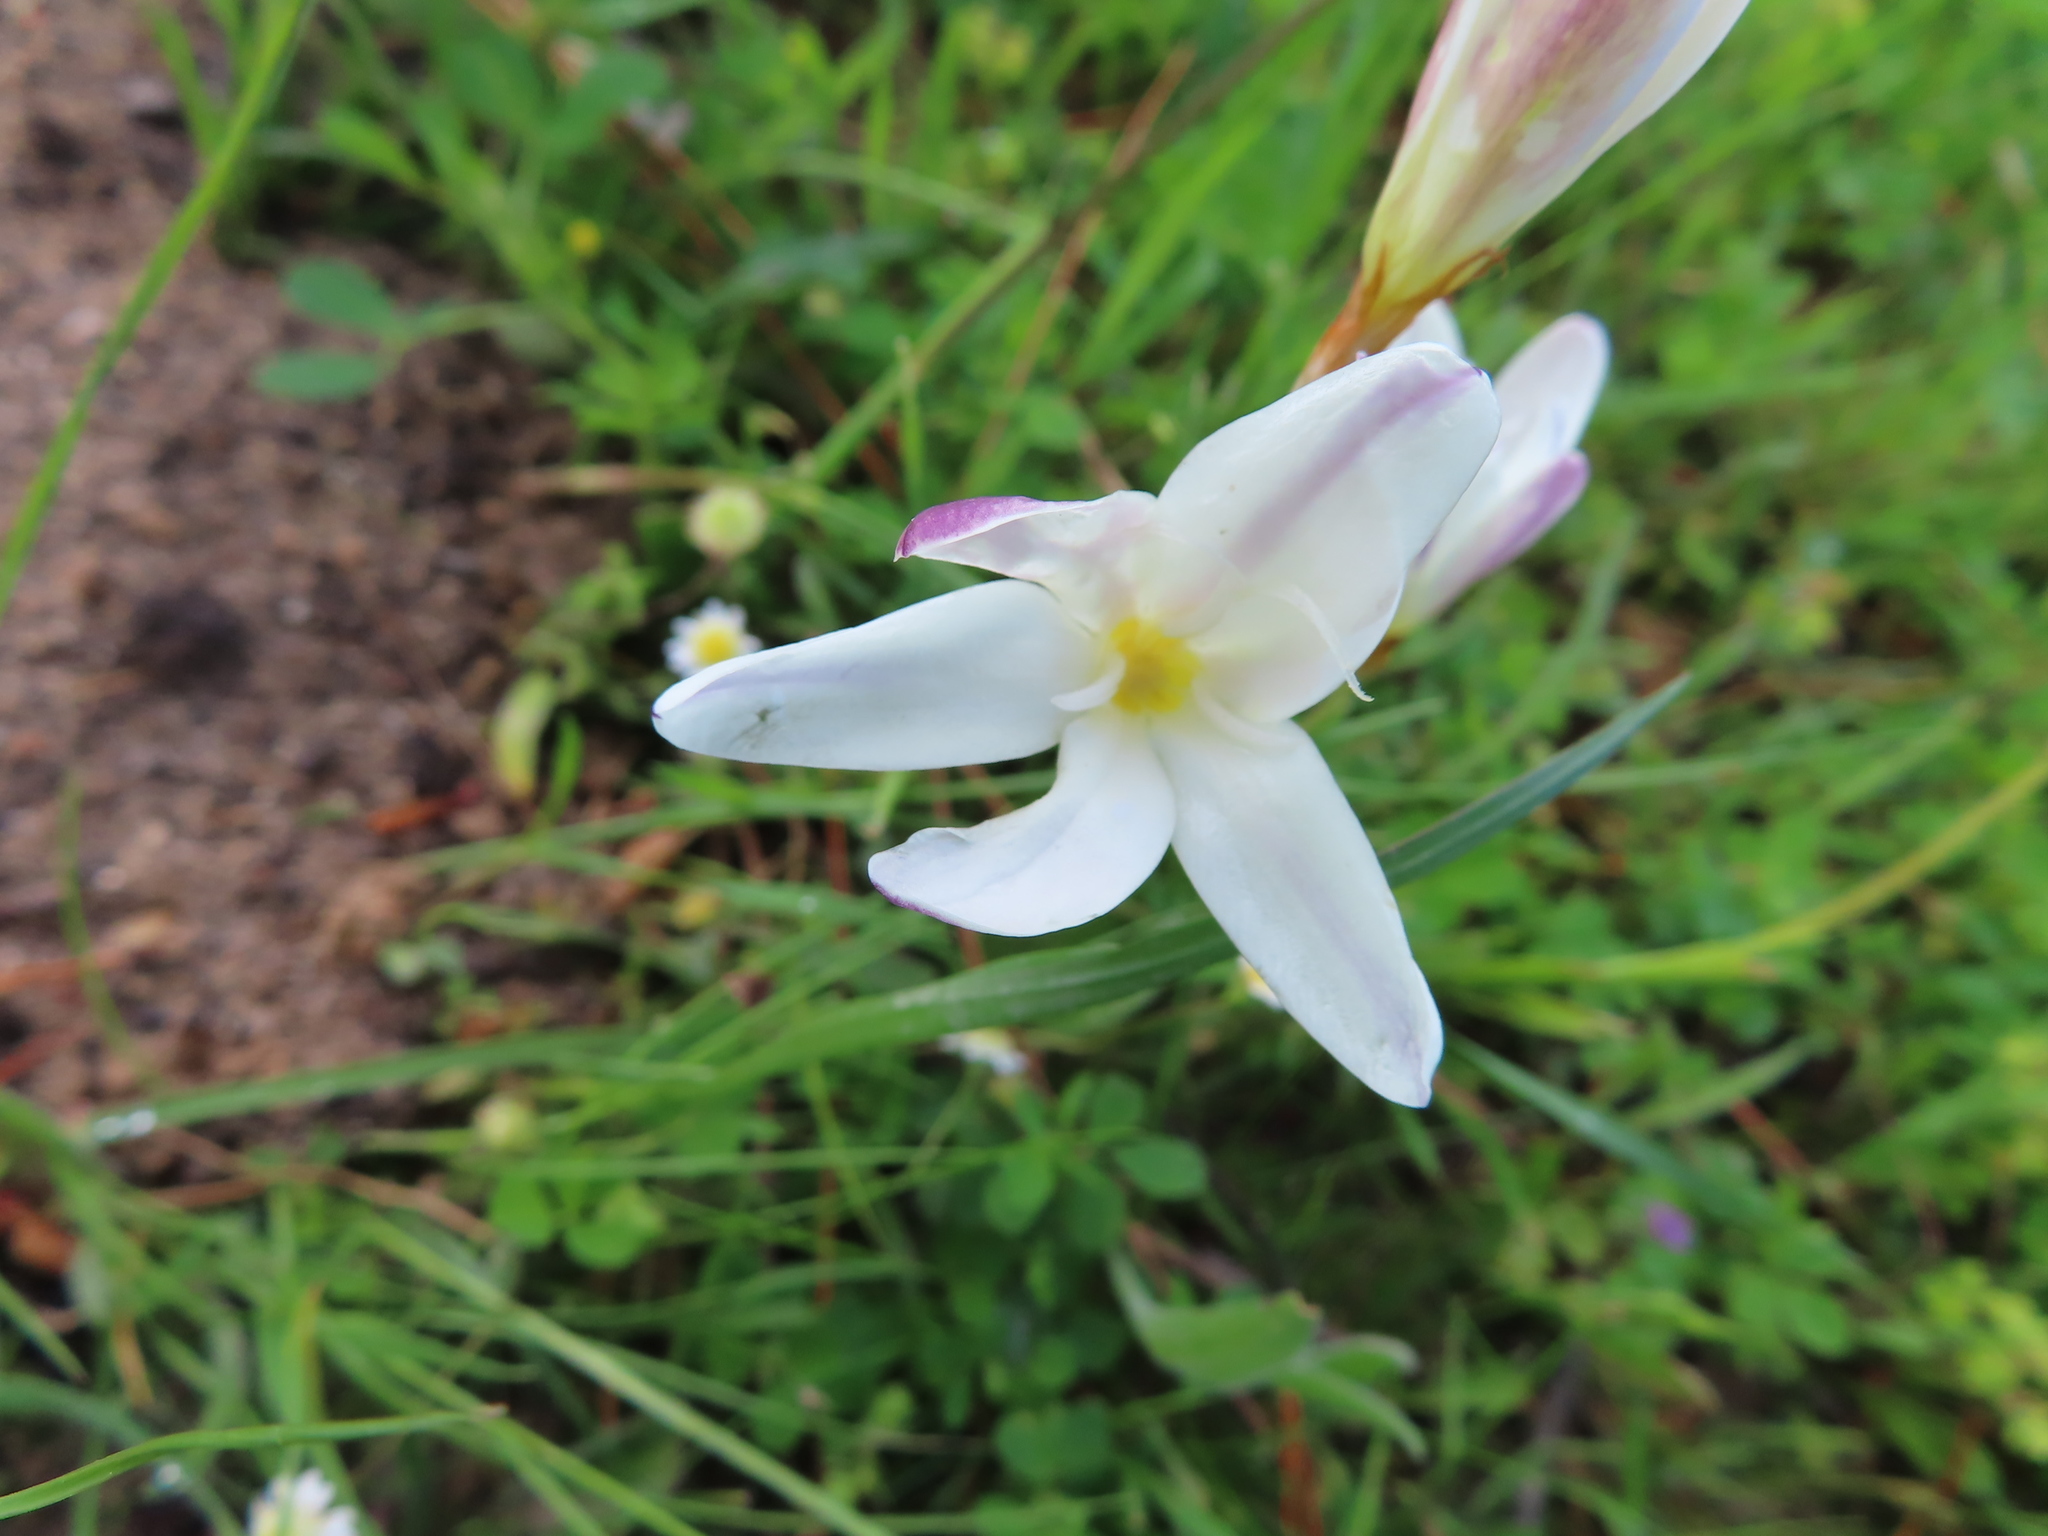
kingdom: Plantae
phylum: Tracheophyta
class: Liliopsida
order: Asparagales
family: Iridaceae
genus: Sparaxis
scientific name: Sparaxis bulbifera
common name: Harlequin-flower
